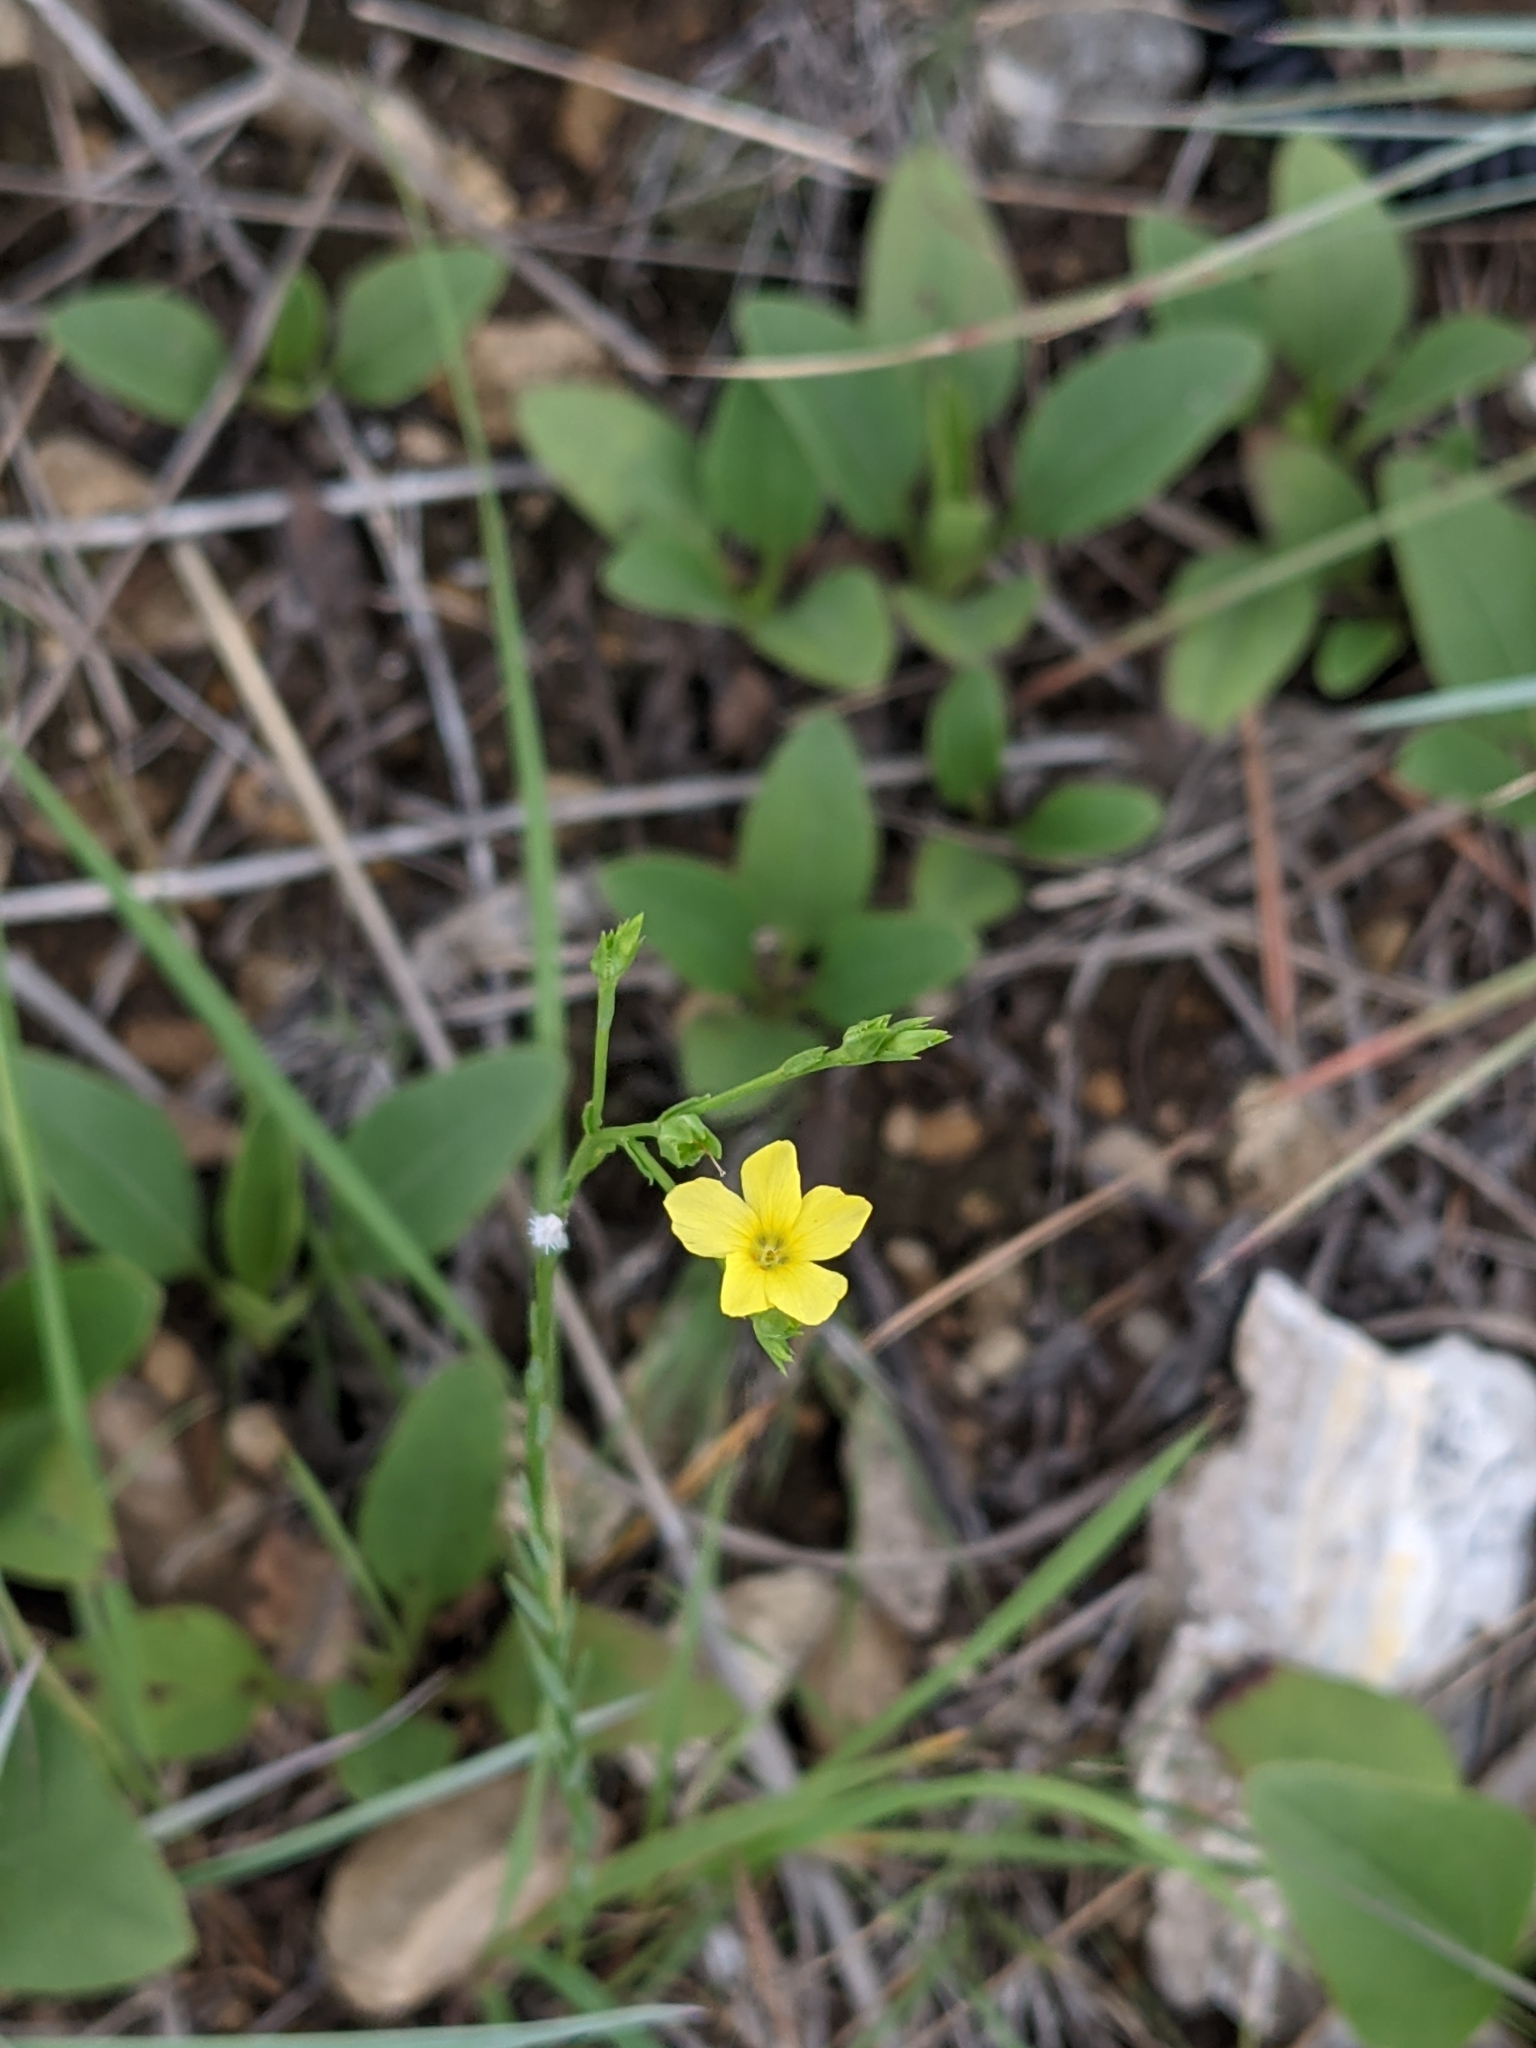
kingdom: Plantae
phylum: Tracheophyta
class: Magnoliopsida
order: Malpighiales
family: Linaceae
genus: Linum
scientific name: Linum sulcatum
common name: Grooved flax
